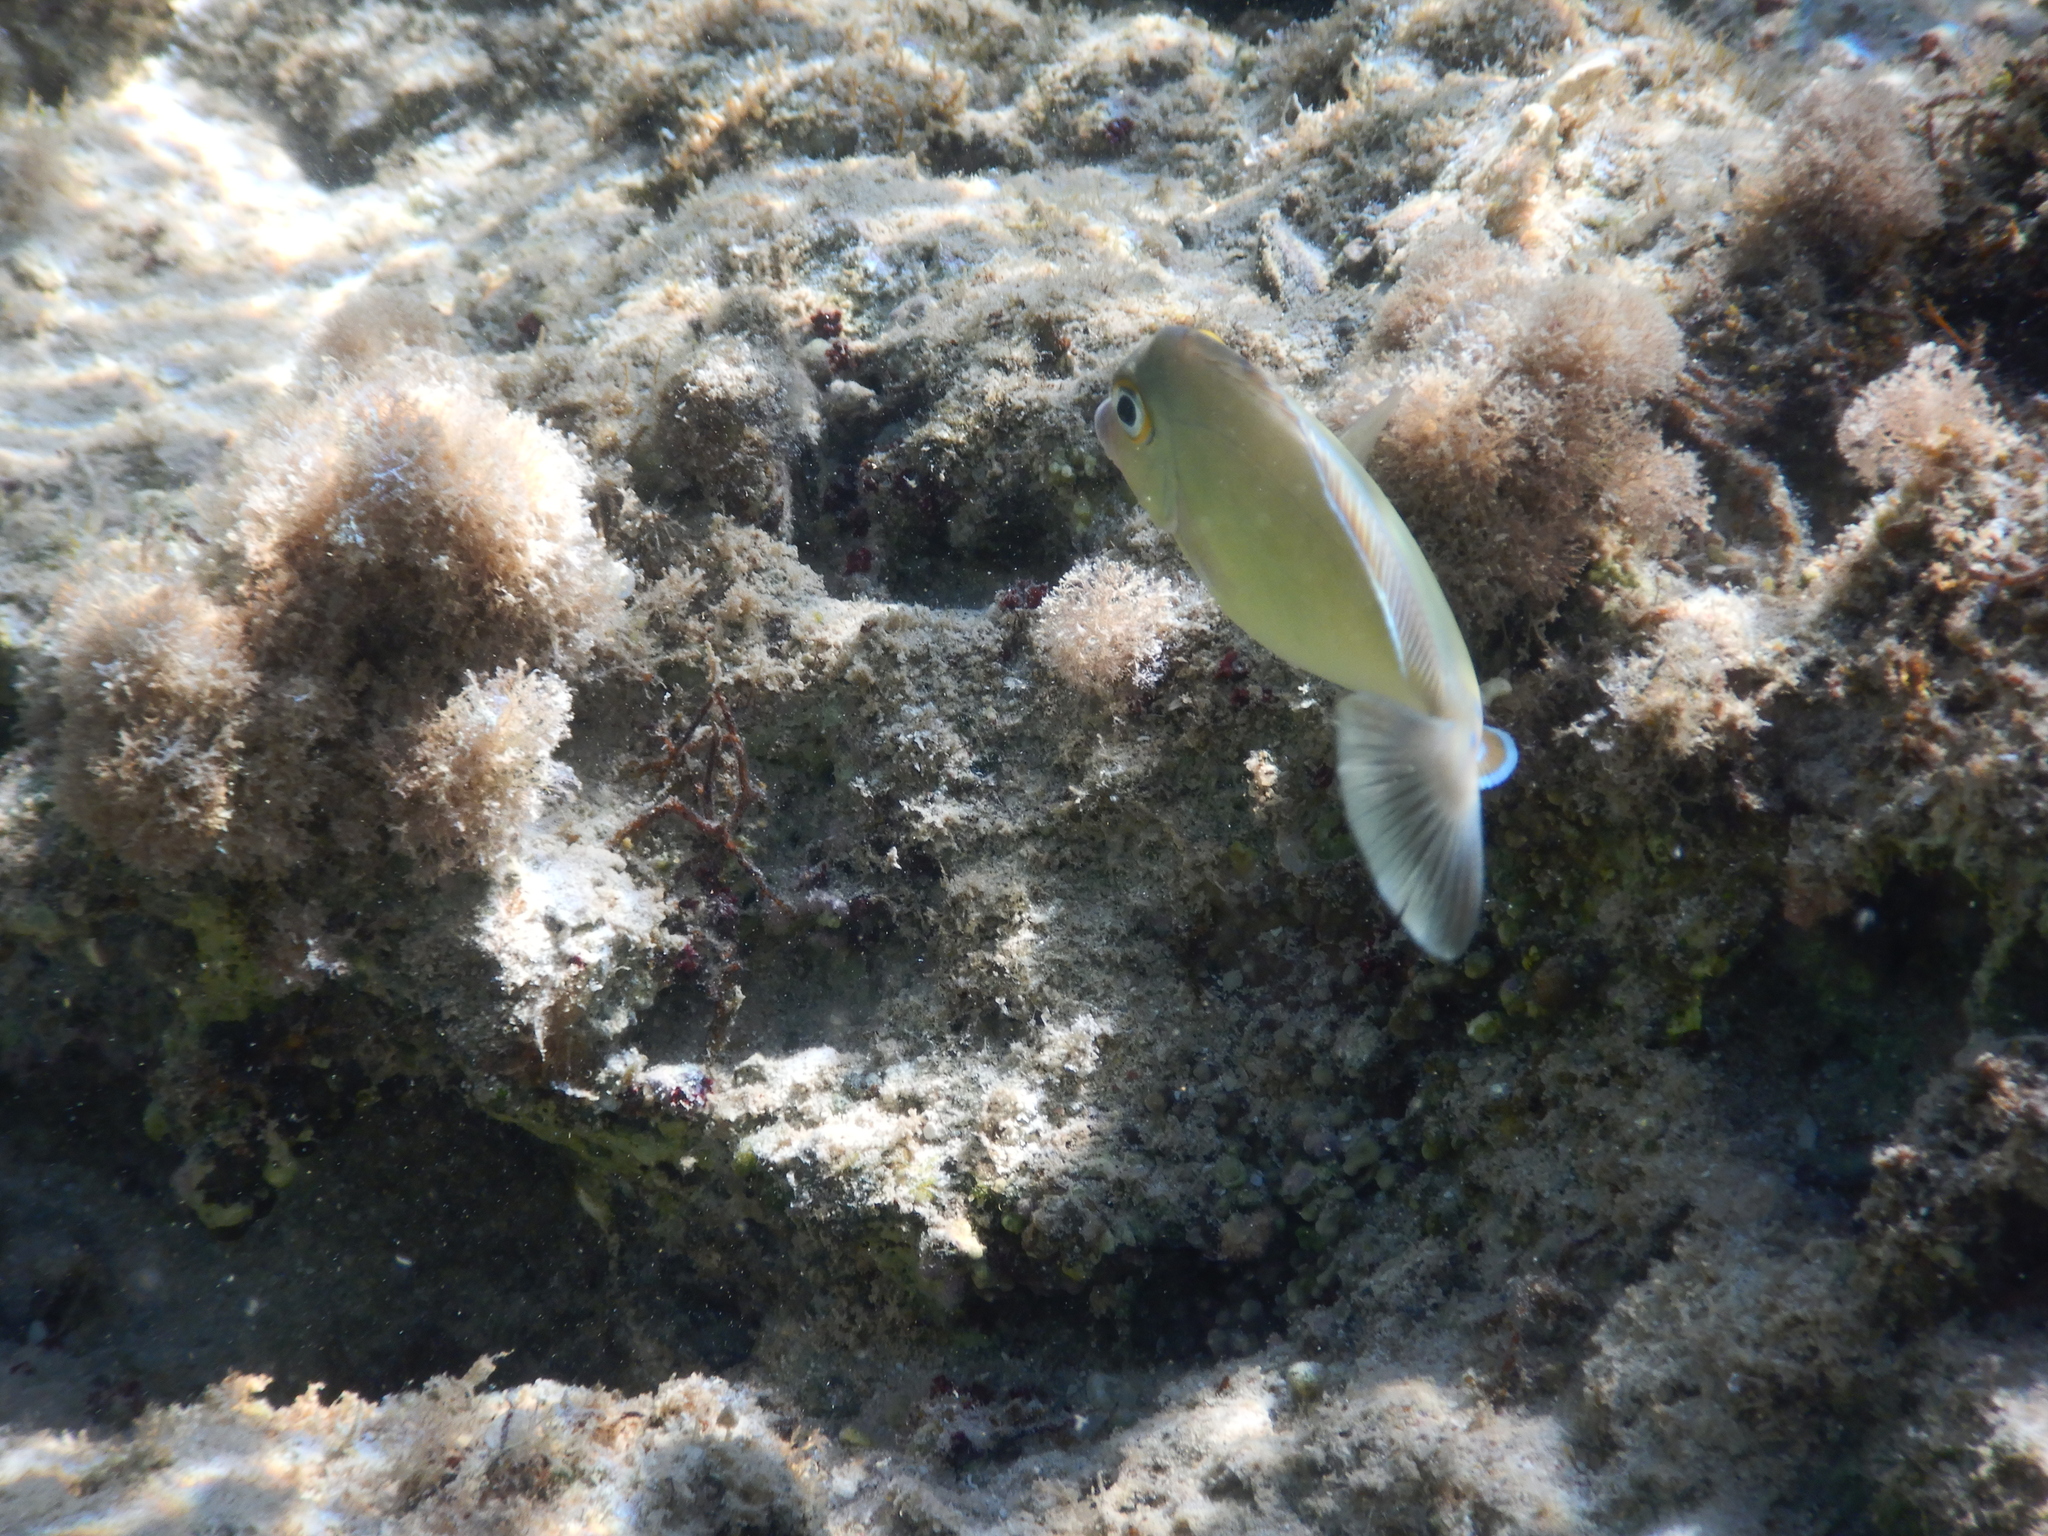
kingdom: Animalia
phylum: Chordata
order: Perciformes
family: Acanthuridae
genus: Naso
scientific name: Naso unicornis
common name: Bluespine unicornfish
